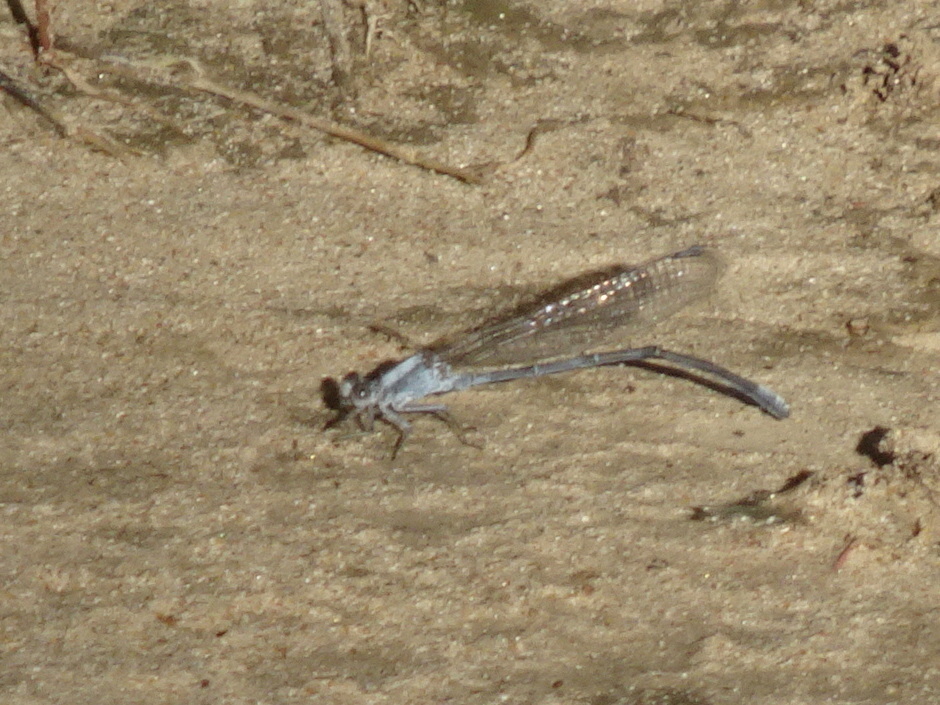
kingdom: Animalia
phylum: Arthropoda
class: Insecta
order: Odonata
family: Coenagrionidae
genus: Argia
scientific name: Argia moesta
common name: Powdered dancer
